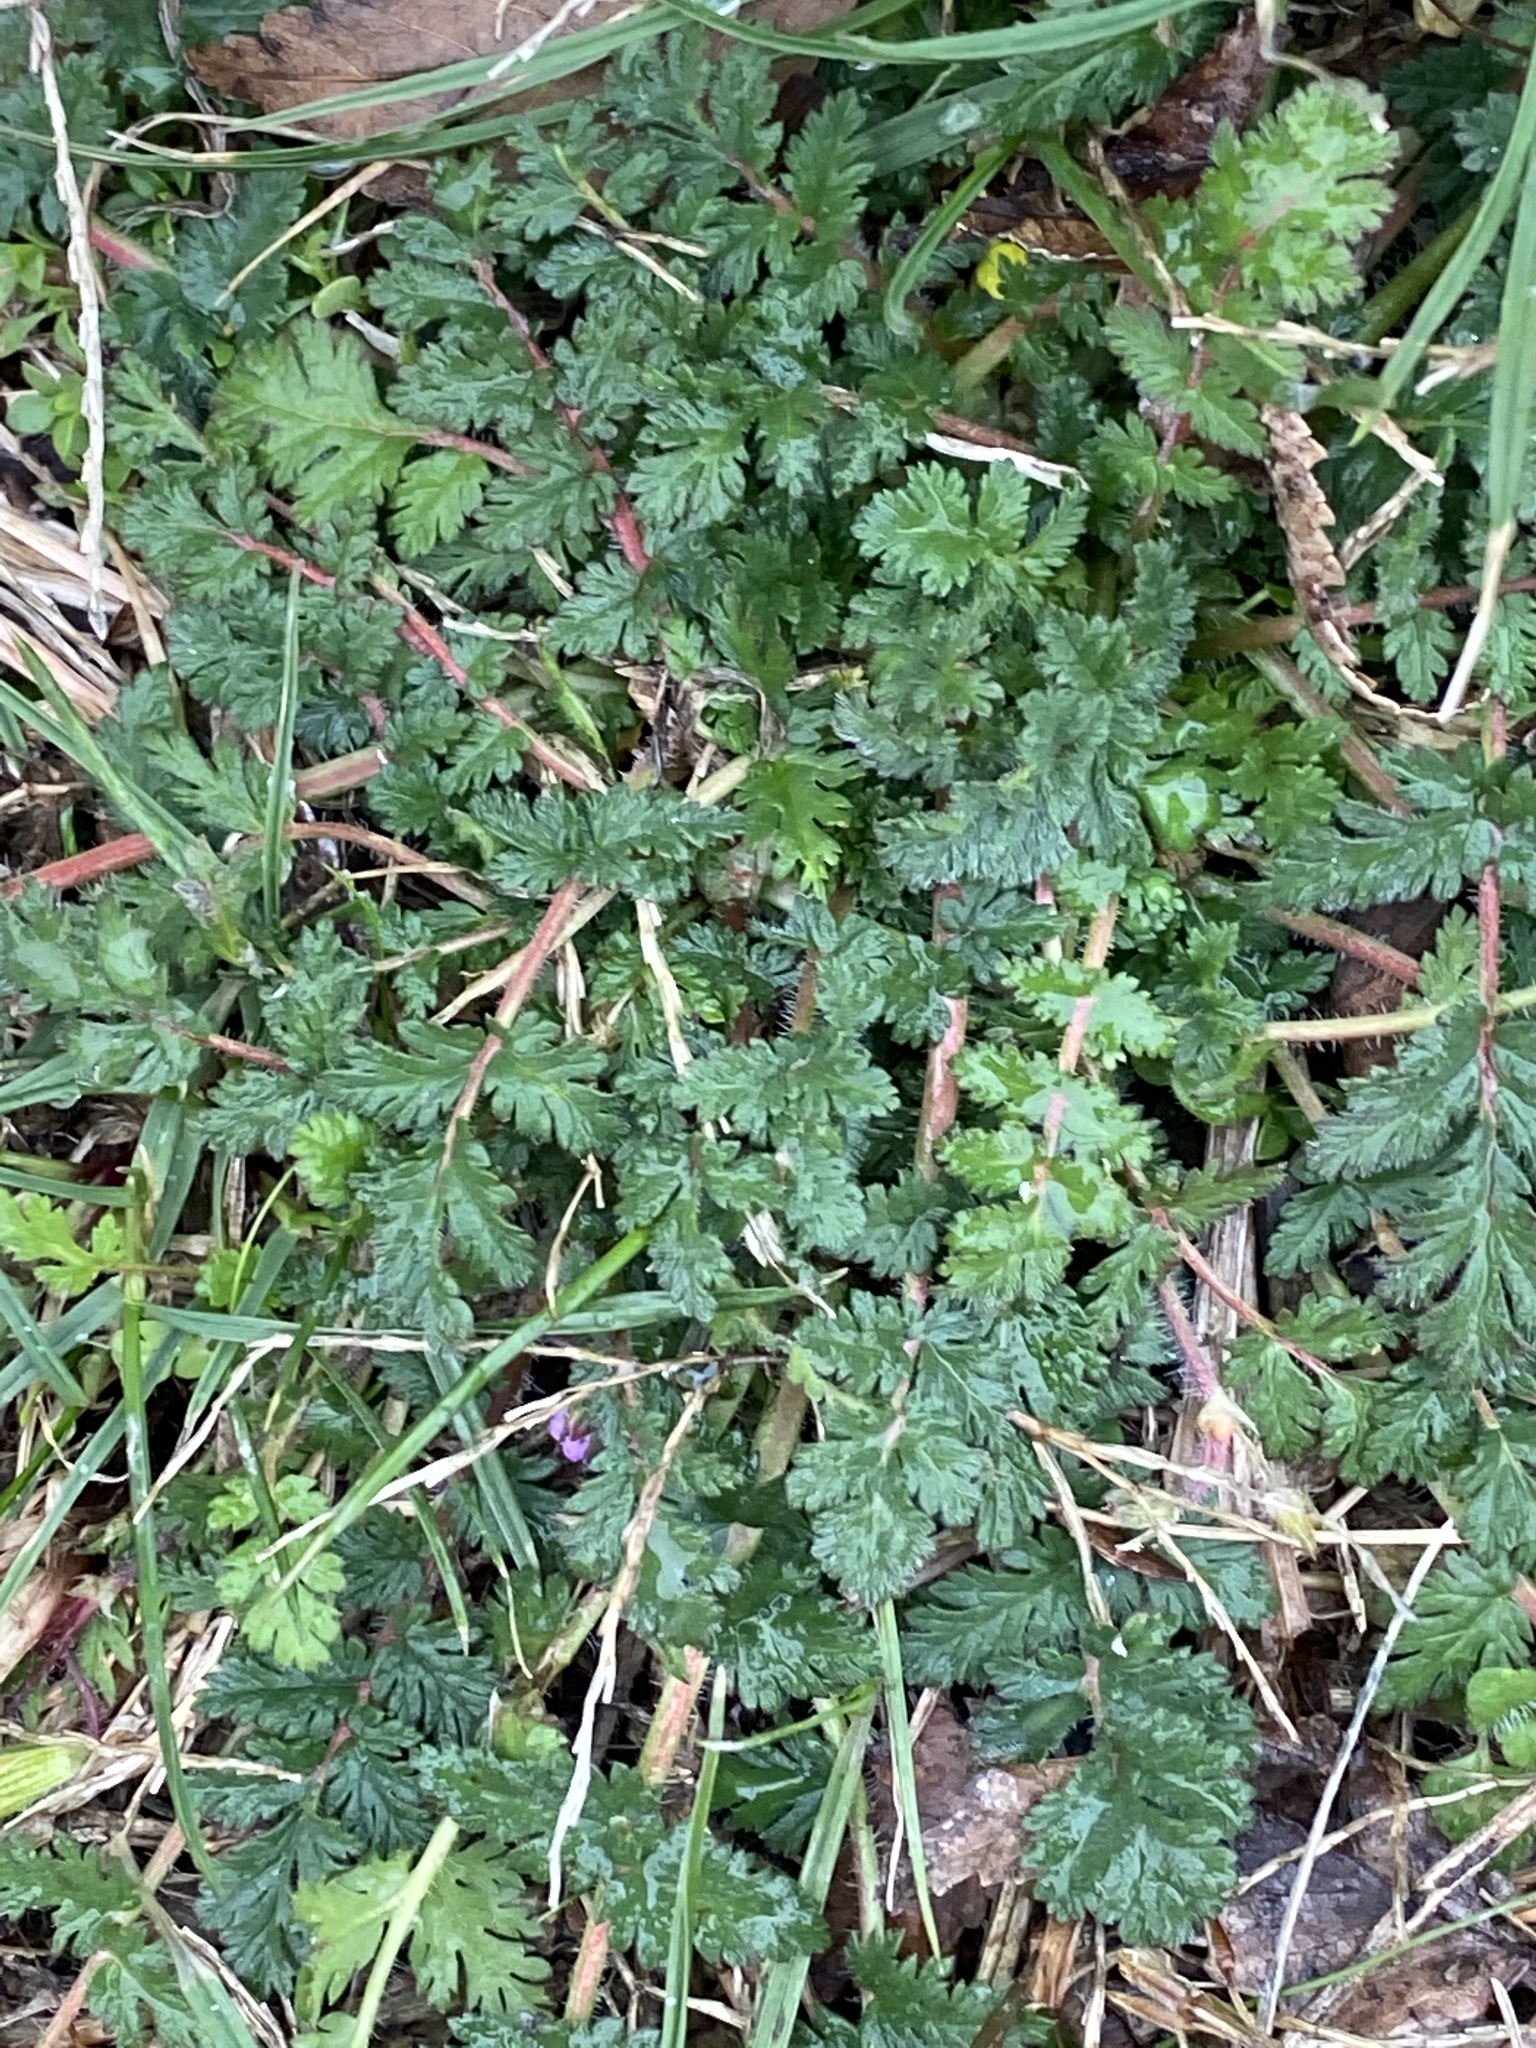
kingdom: Plantae
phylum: Tracheophyta
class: Magnoliopsida
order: Geraniales
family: Geraniaceae
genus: Erodium
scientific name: Erodium cicutarium
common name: Common stork's-bill
